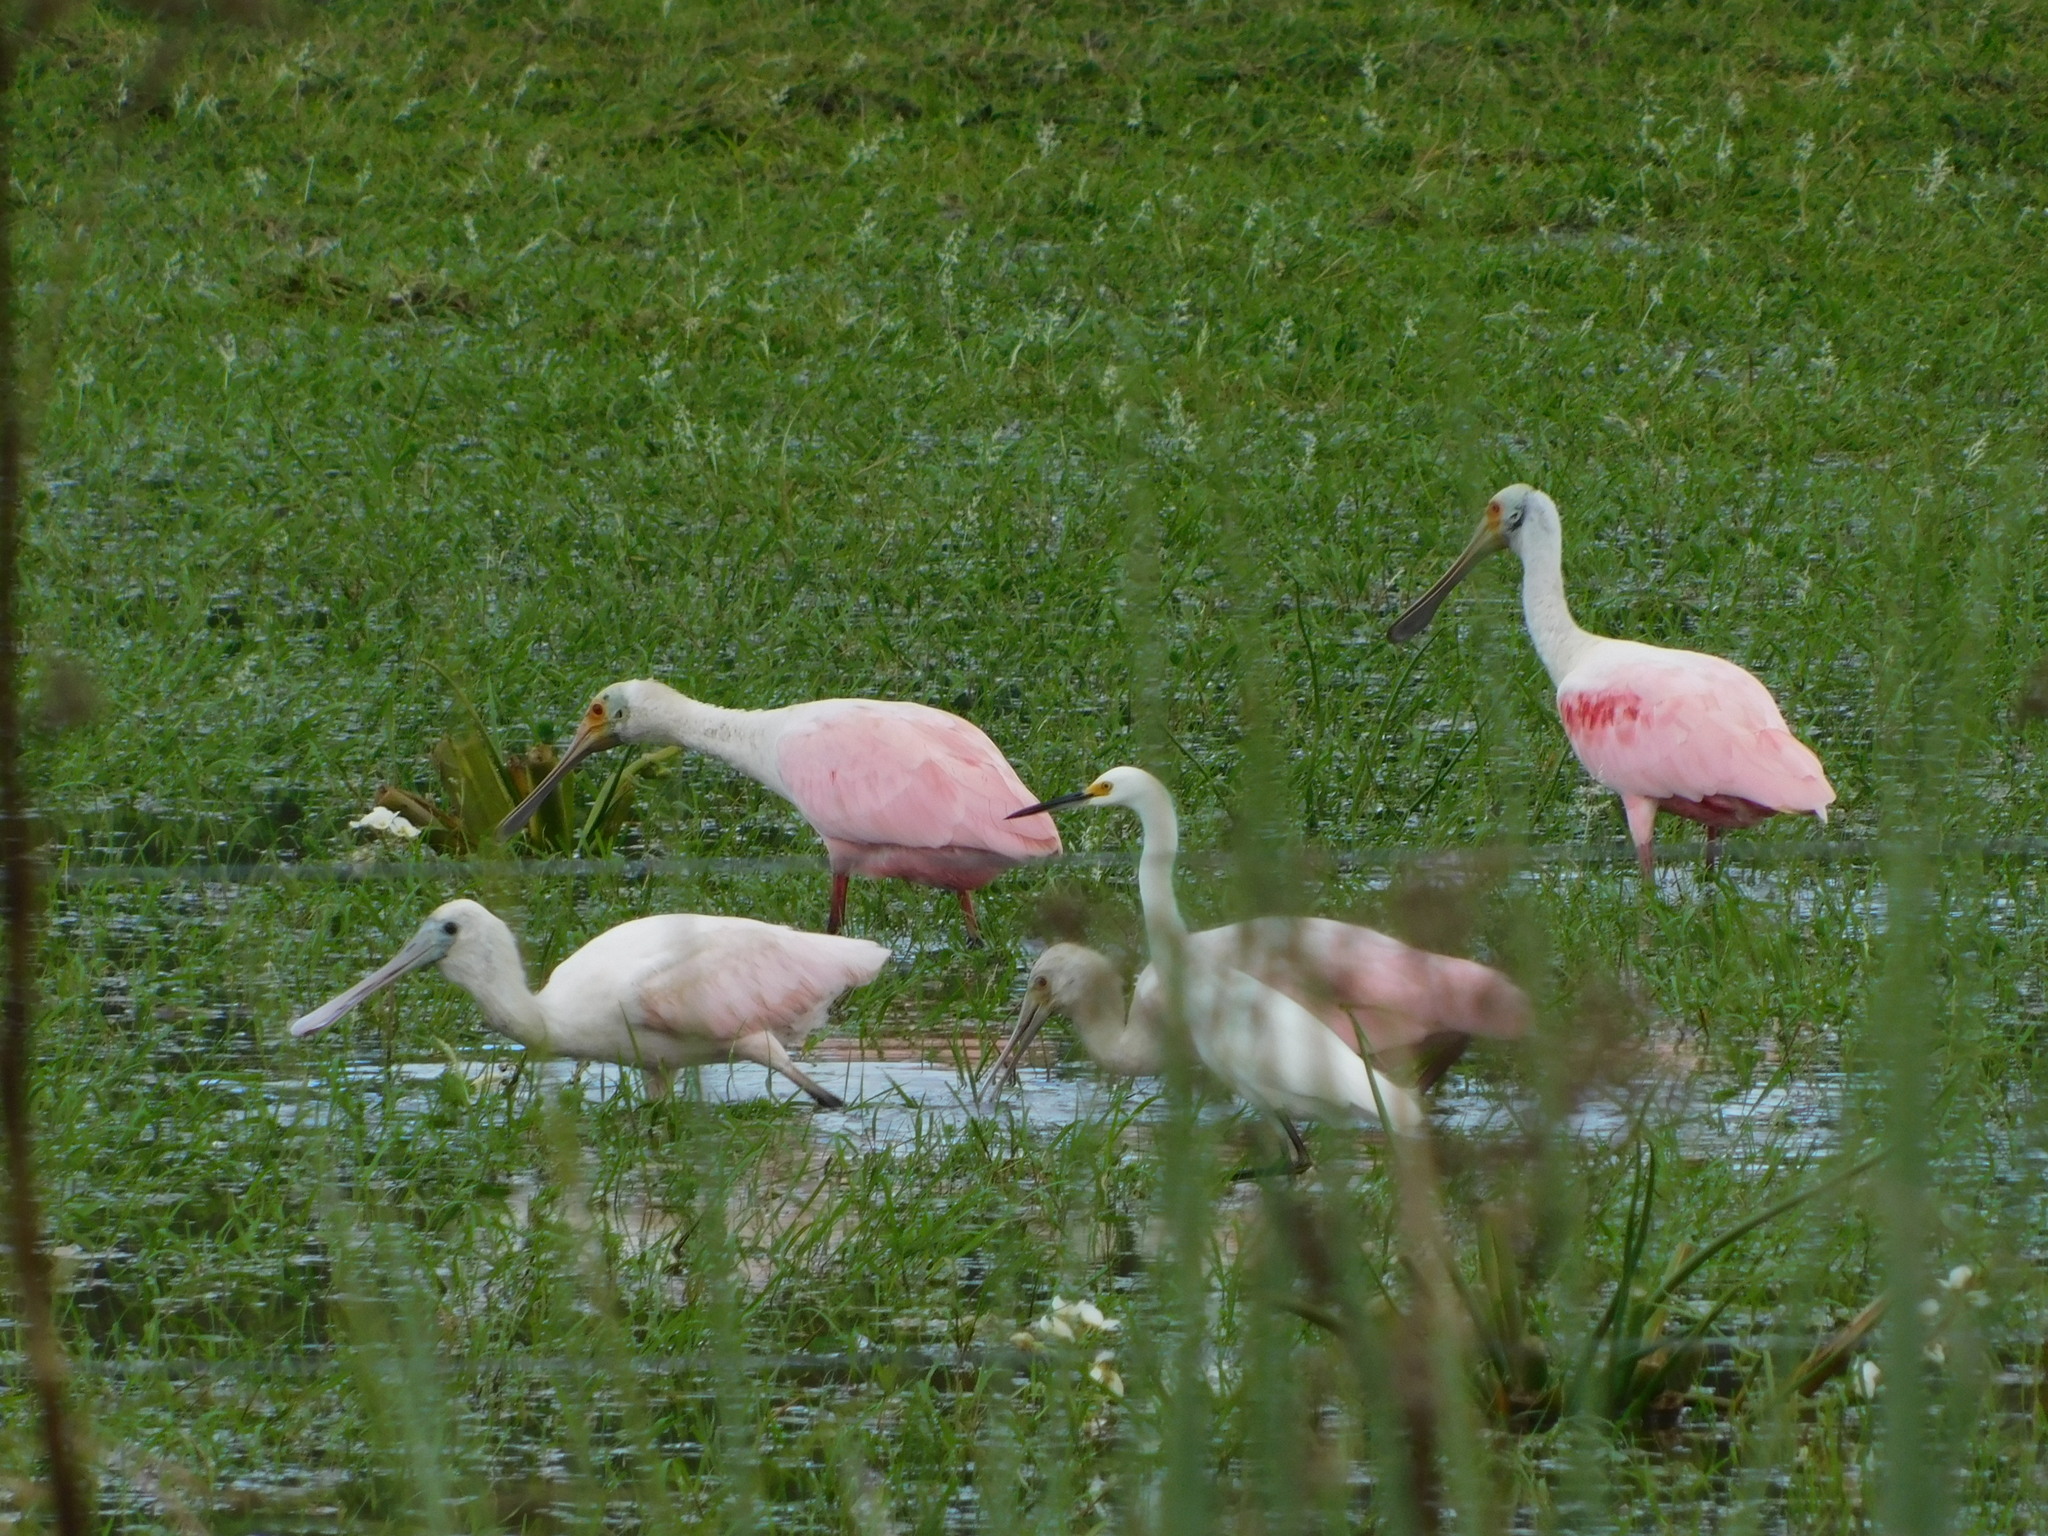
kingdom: Animalia
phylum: Chordata
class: Aves
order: Pelecaniformes
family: Threskiornithidae
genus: Platalea
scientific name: Platalea ajaja
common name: Roseate spoonbill
